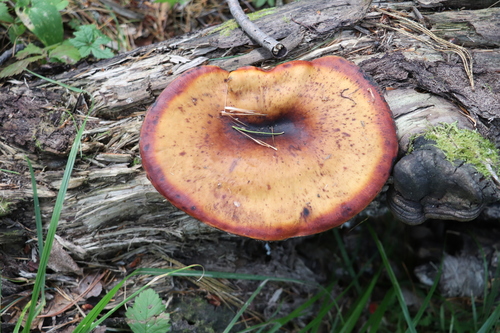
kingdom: Fungi
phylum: Basidiomycota
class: Agaricomycetes
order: Polyporales
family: Polyporaceae
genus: Picipes
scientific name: Picipes badius
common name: Bay polypore
